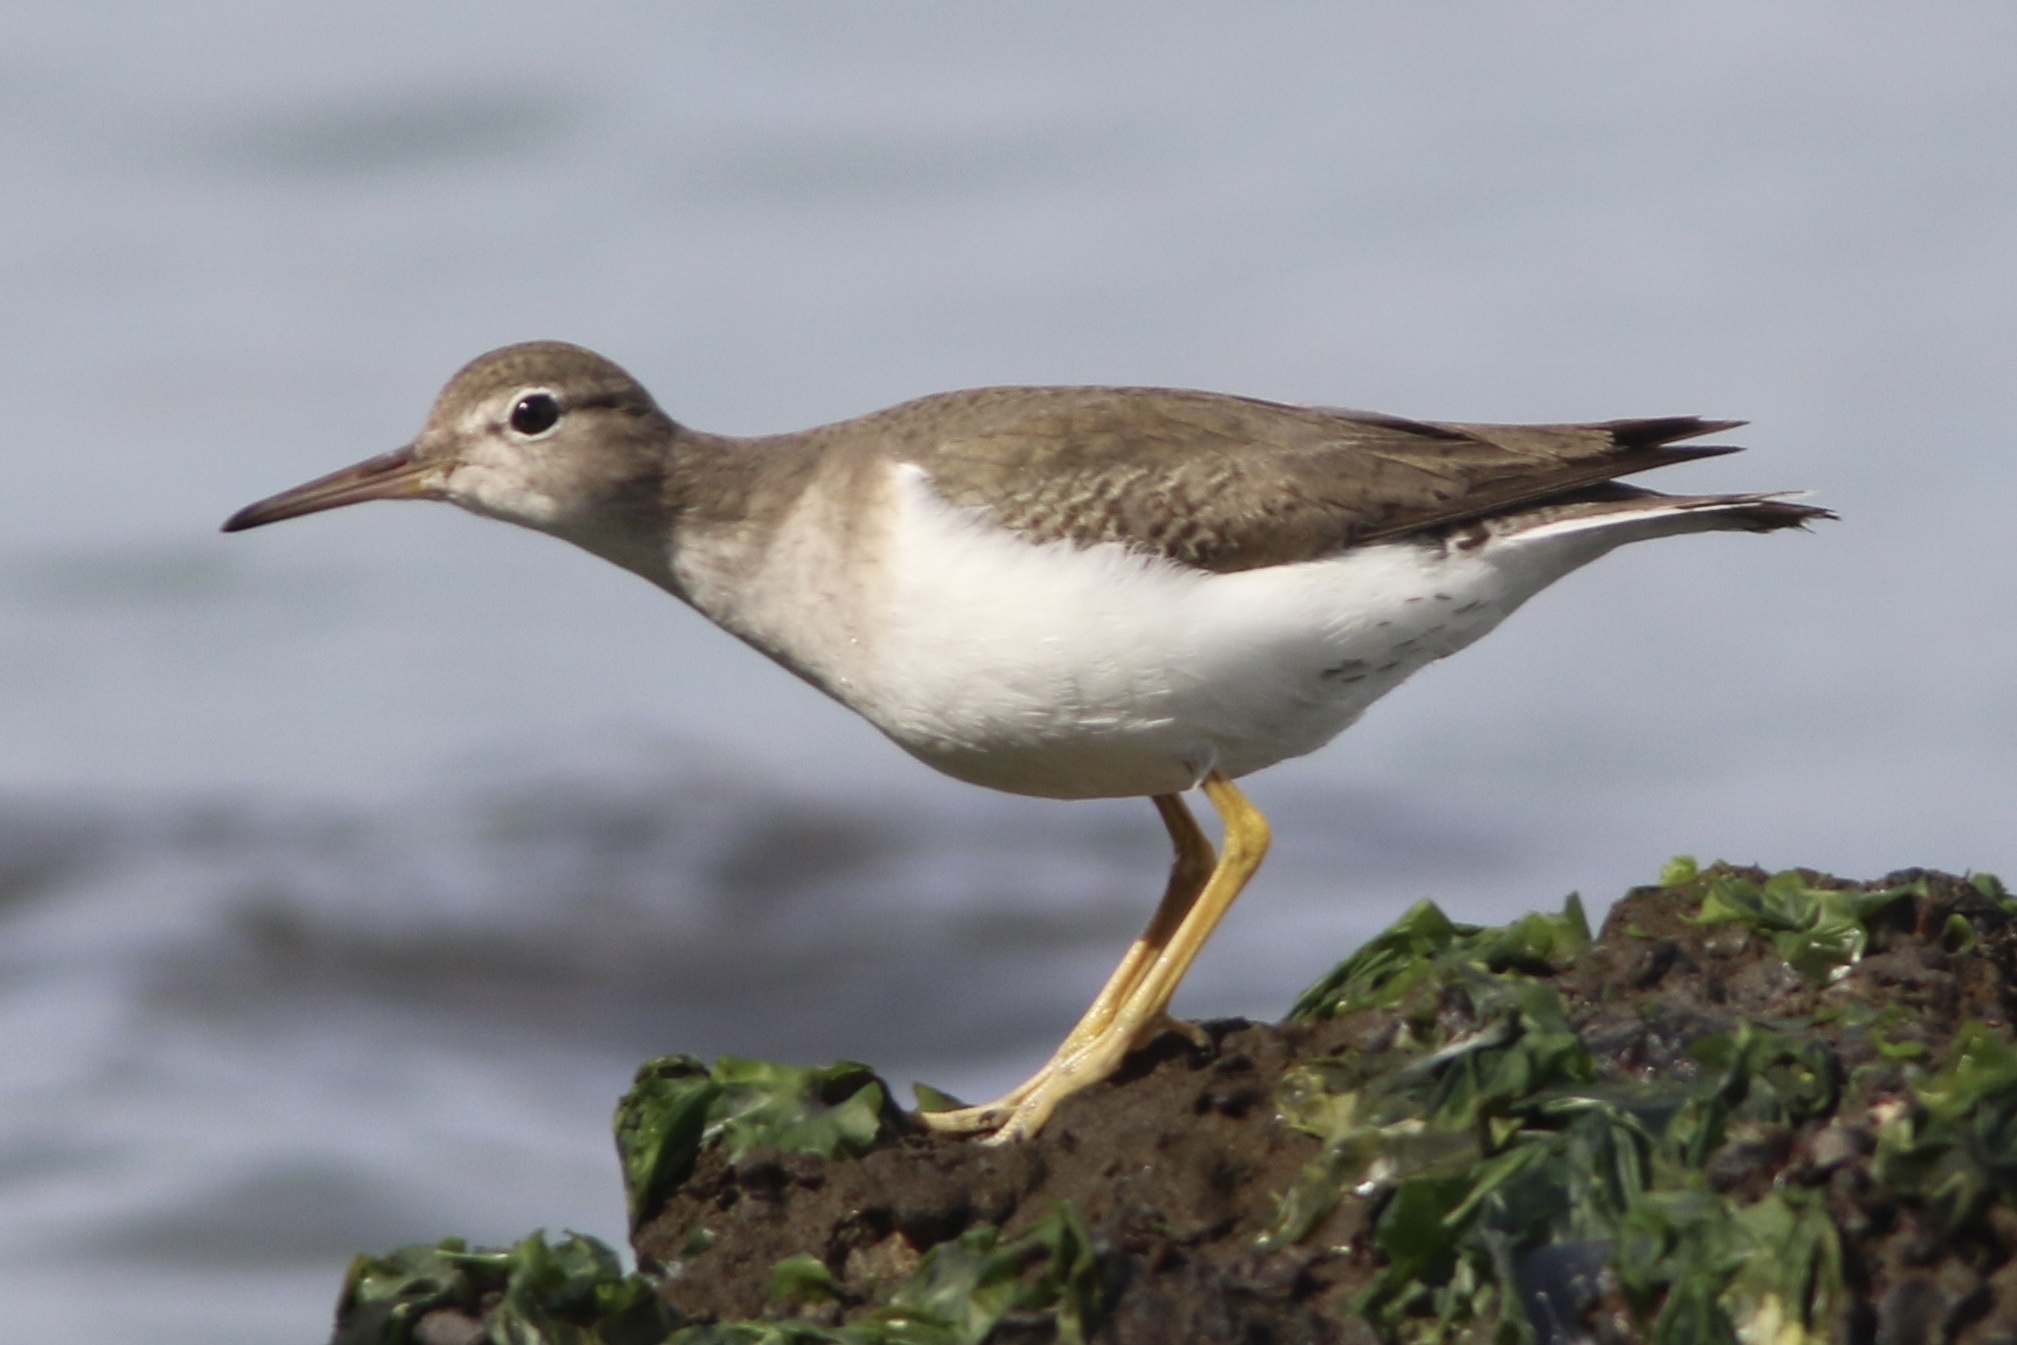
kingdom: Animalia
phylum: Chordata
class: Aves
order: Charadriiformes
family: Scolopacidae
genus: Actitis
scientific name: Actitis macularius
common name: Spotted sandpiper
